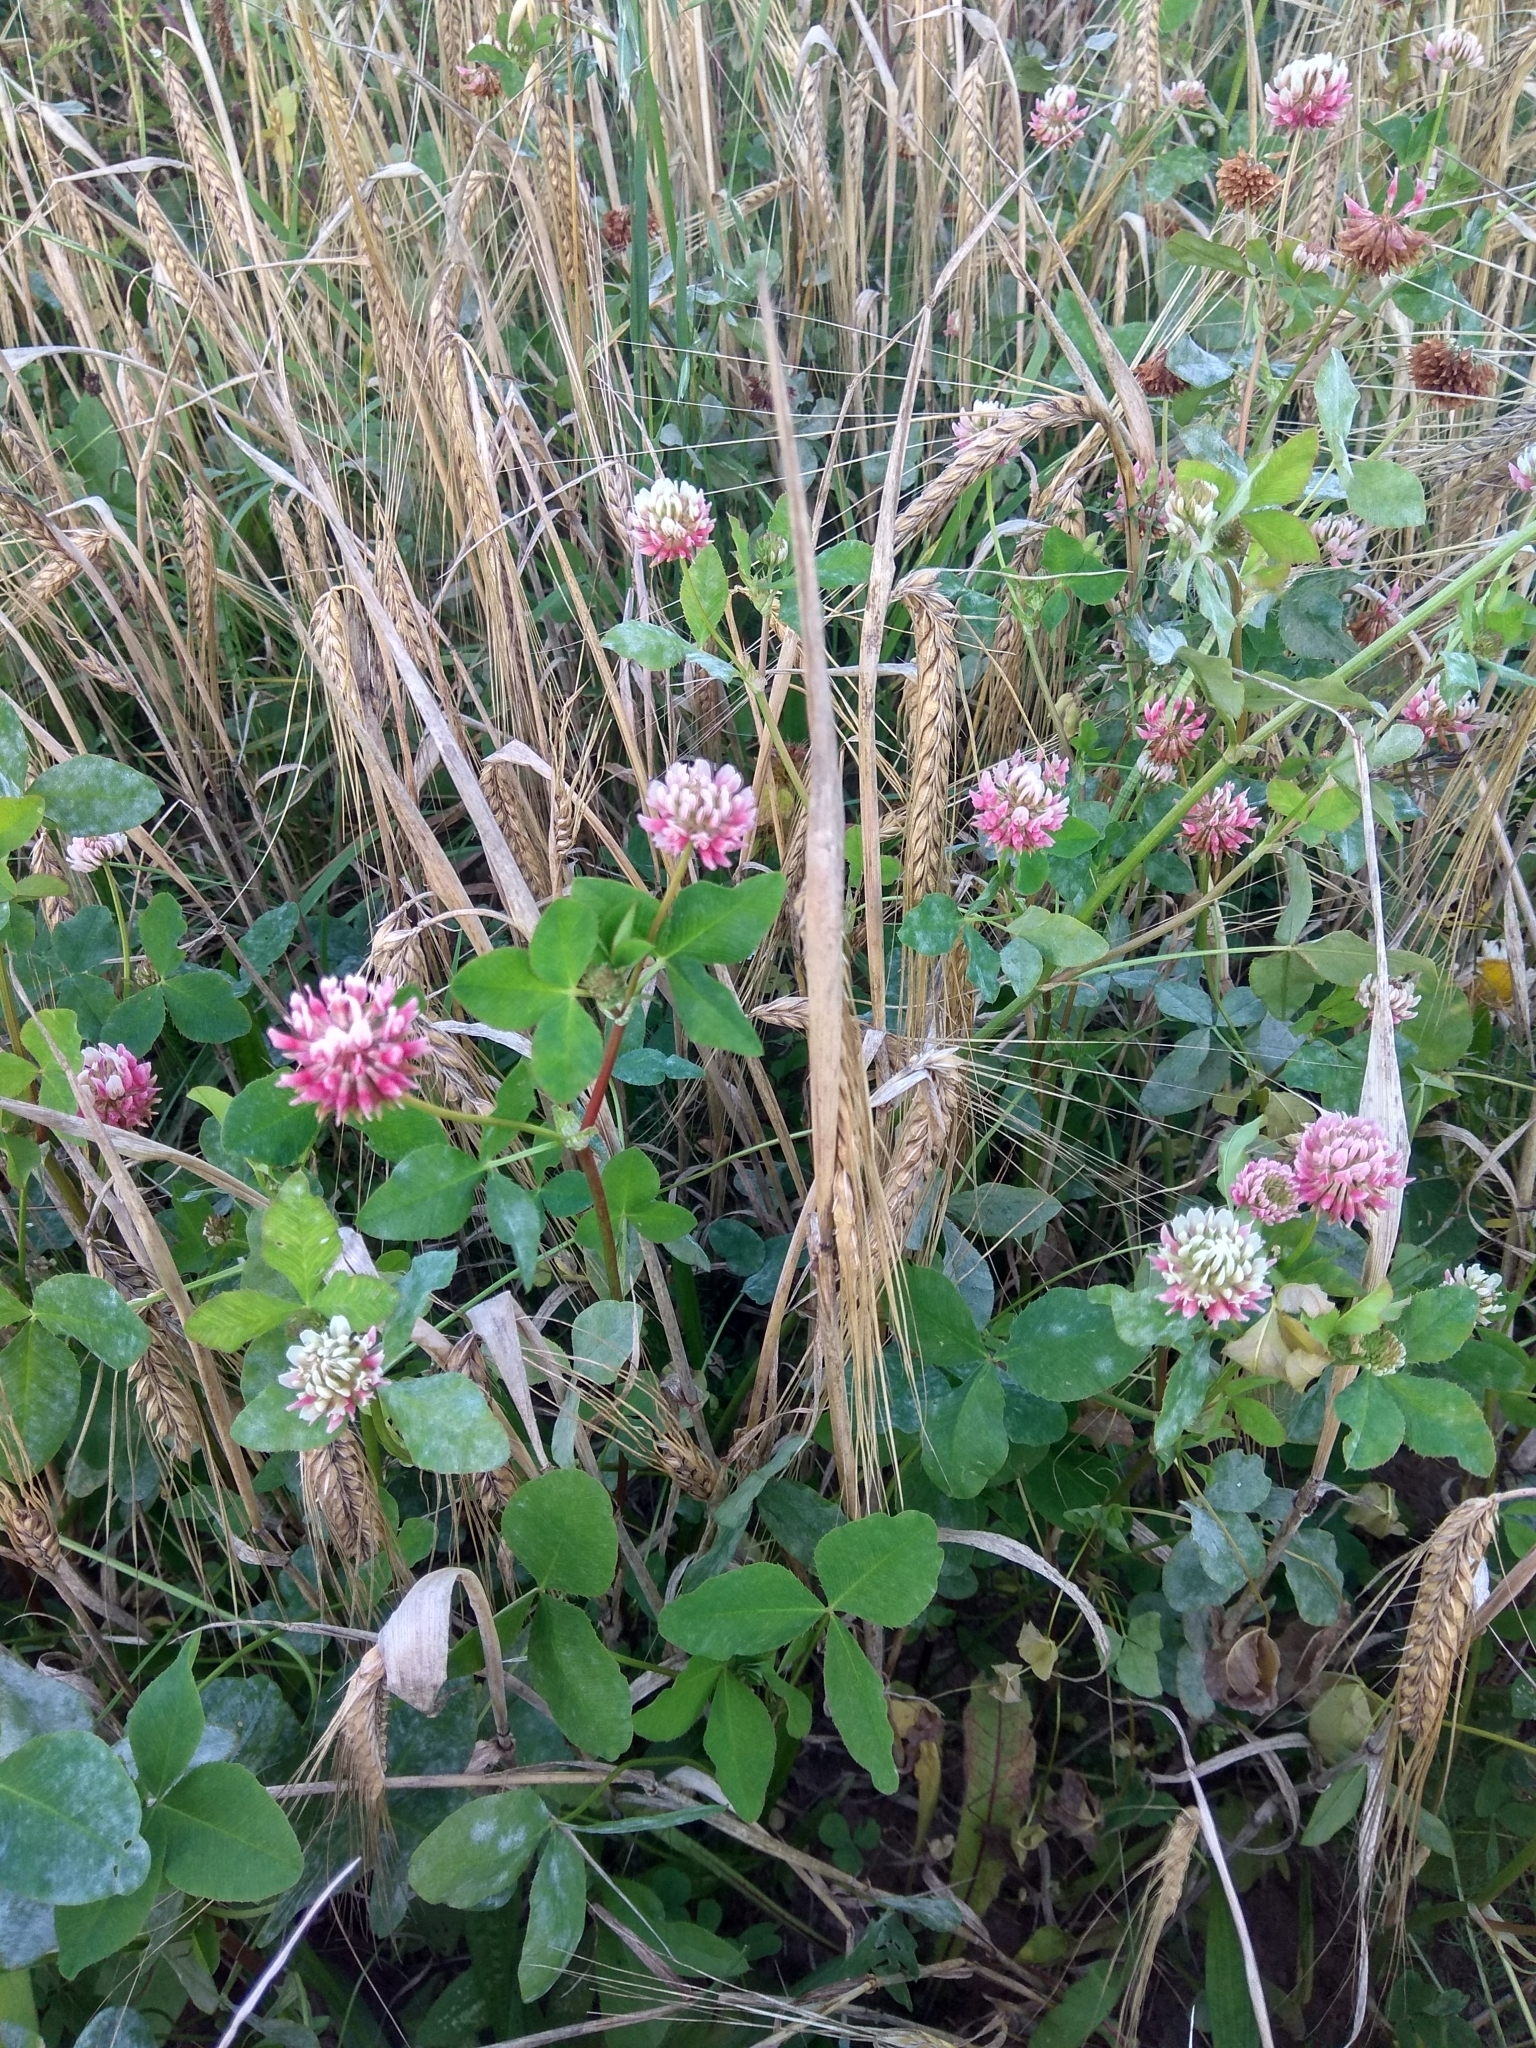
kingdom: Plantae
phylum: Tracheophyta
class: Magnoliopsida
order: Fabales
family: Fabaceae
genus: Trifolium
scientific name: Trifolium hybridum
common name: Alsike clover
